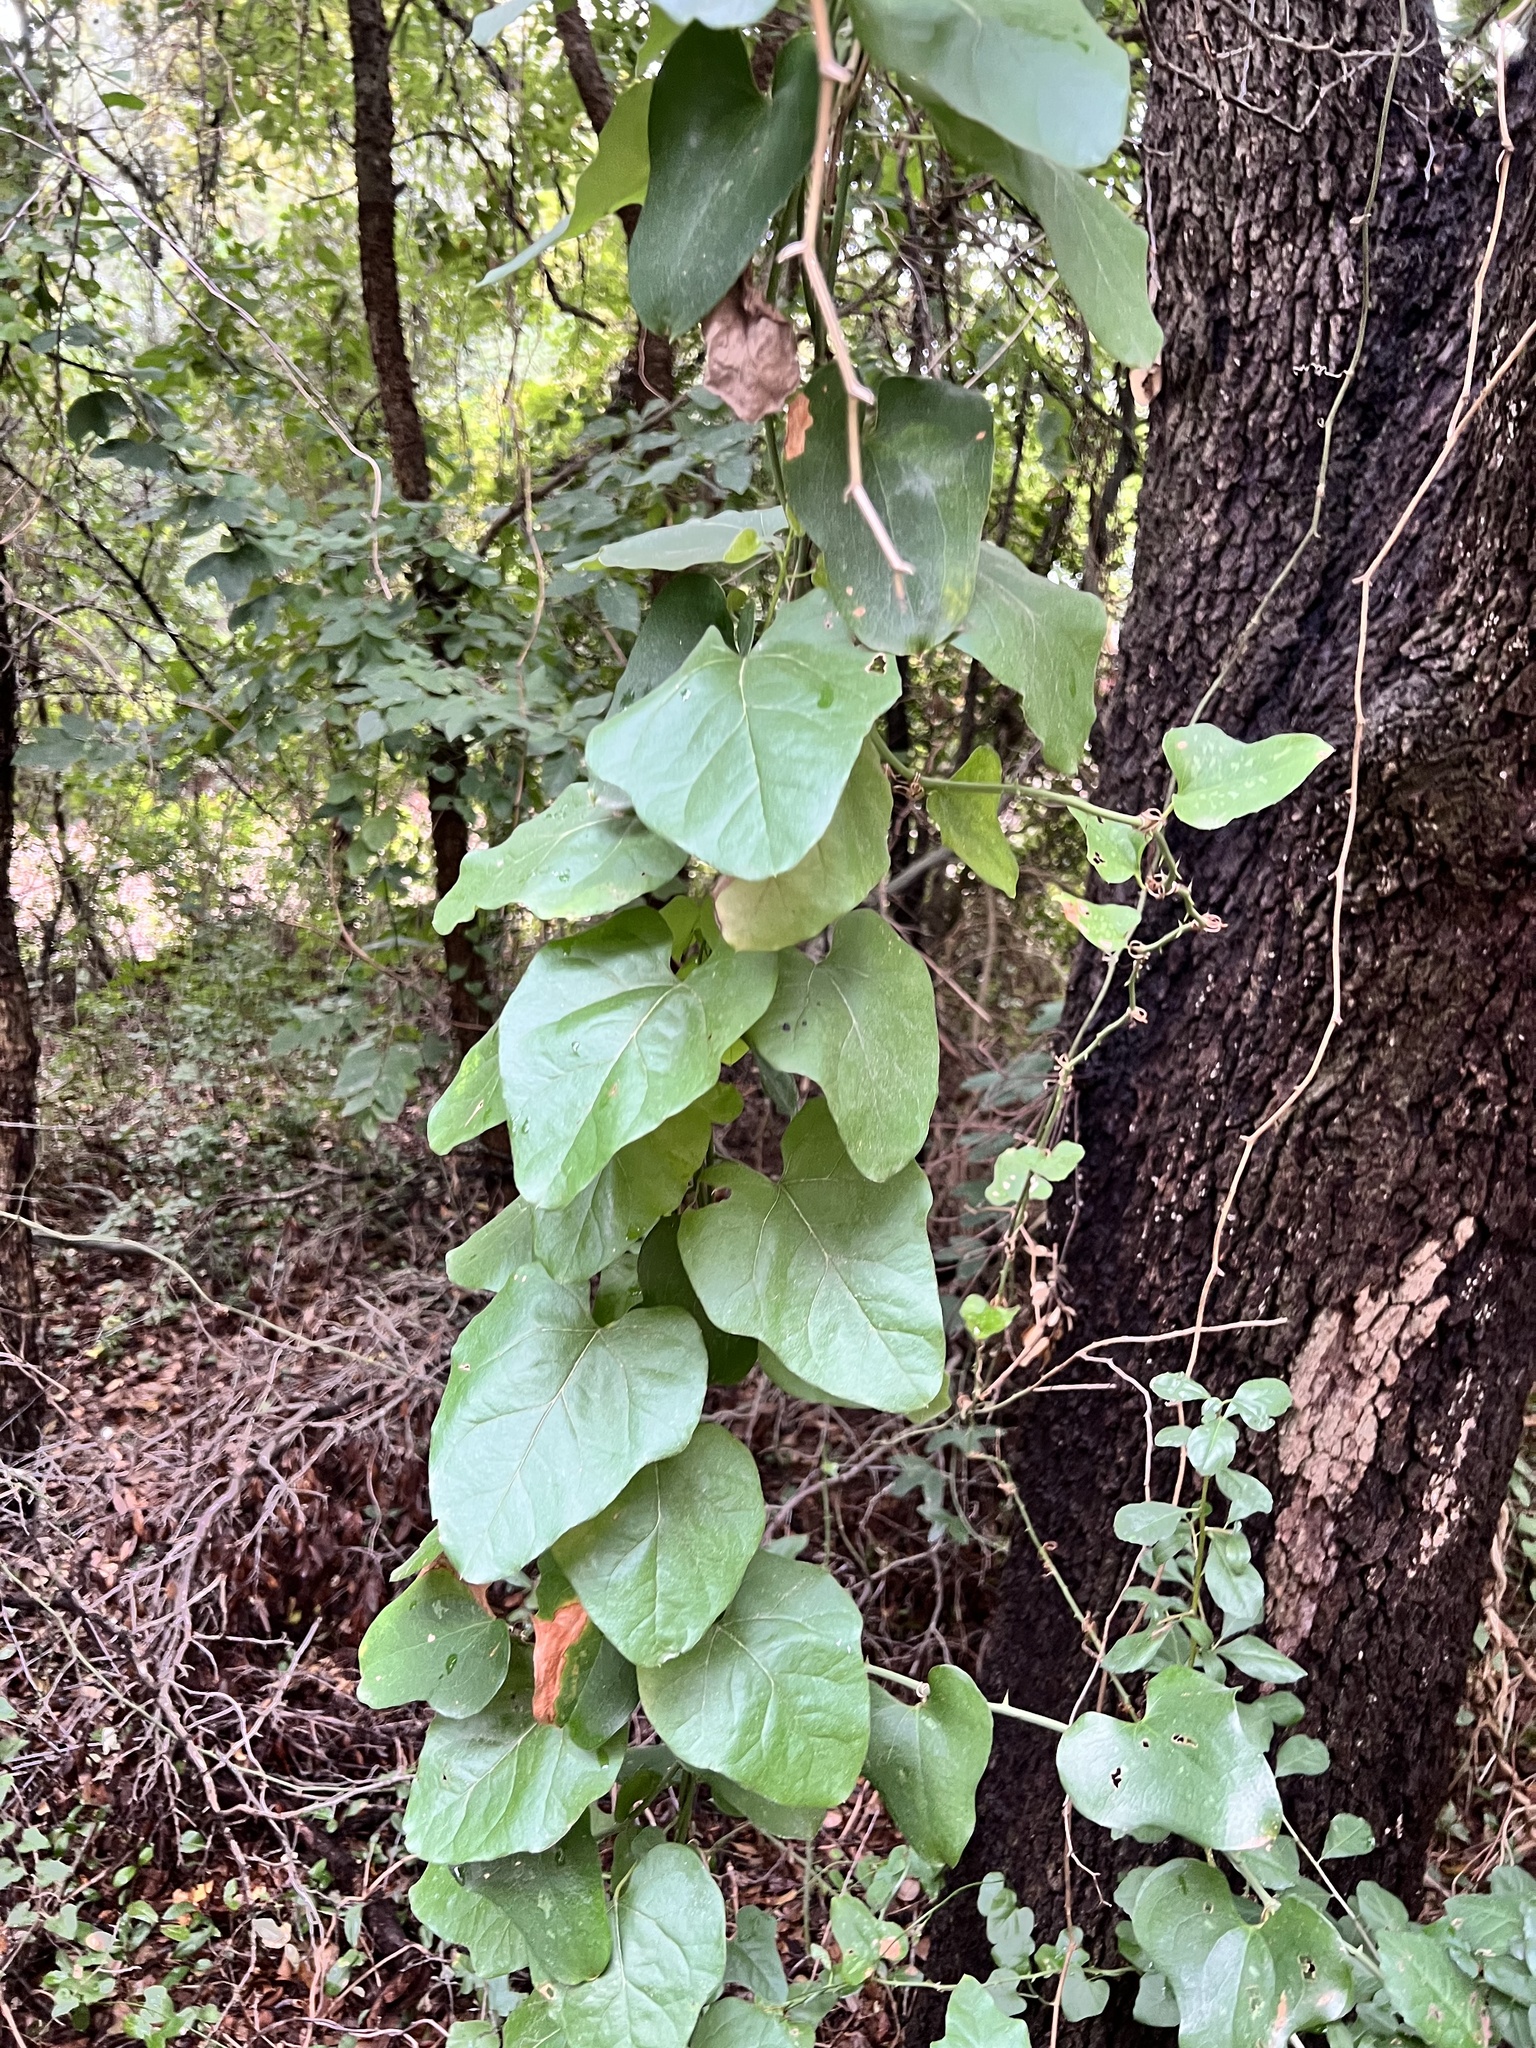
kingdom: Plantae
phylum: Tracheophyta
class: Magnoliopsida
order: Ranunculales
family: Menispermaceae
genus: Cocculus
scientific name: Cocculus carolinus
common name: Carolina moonseed
